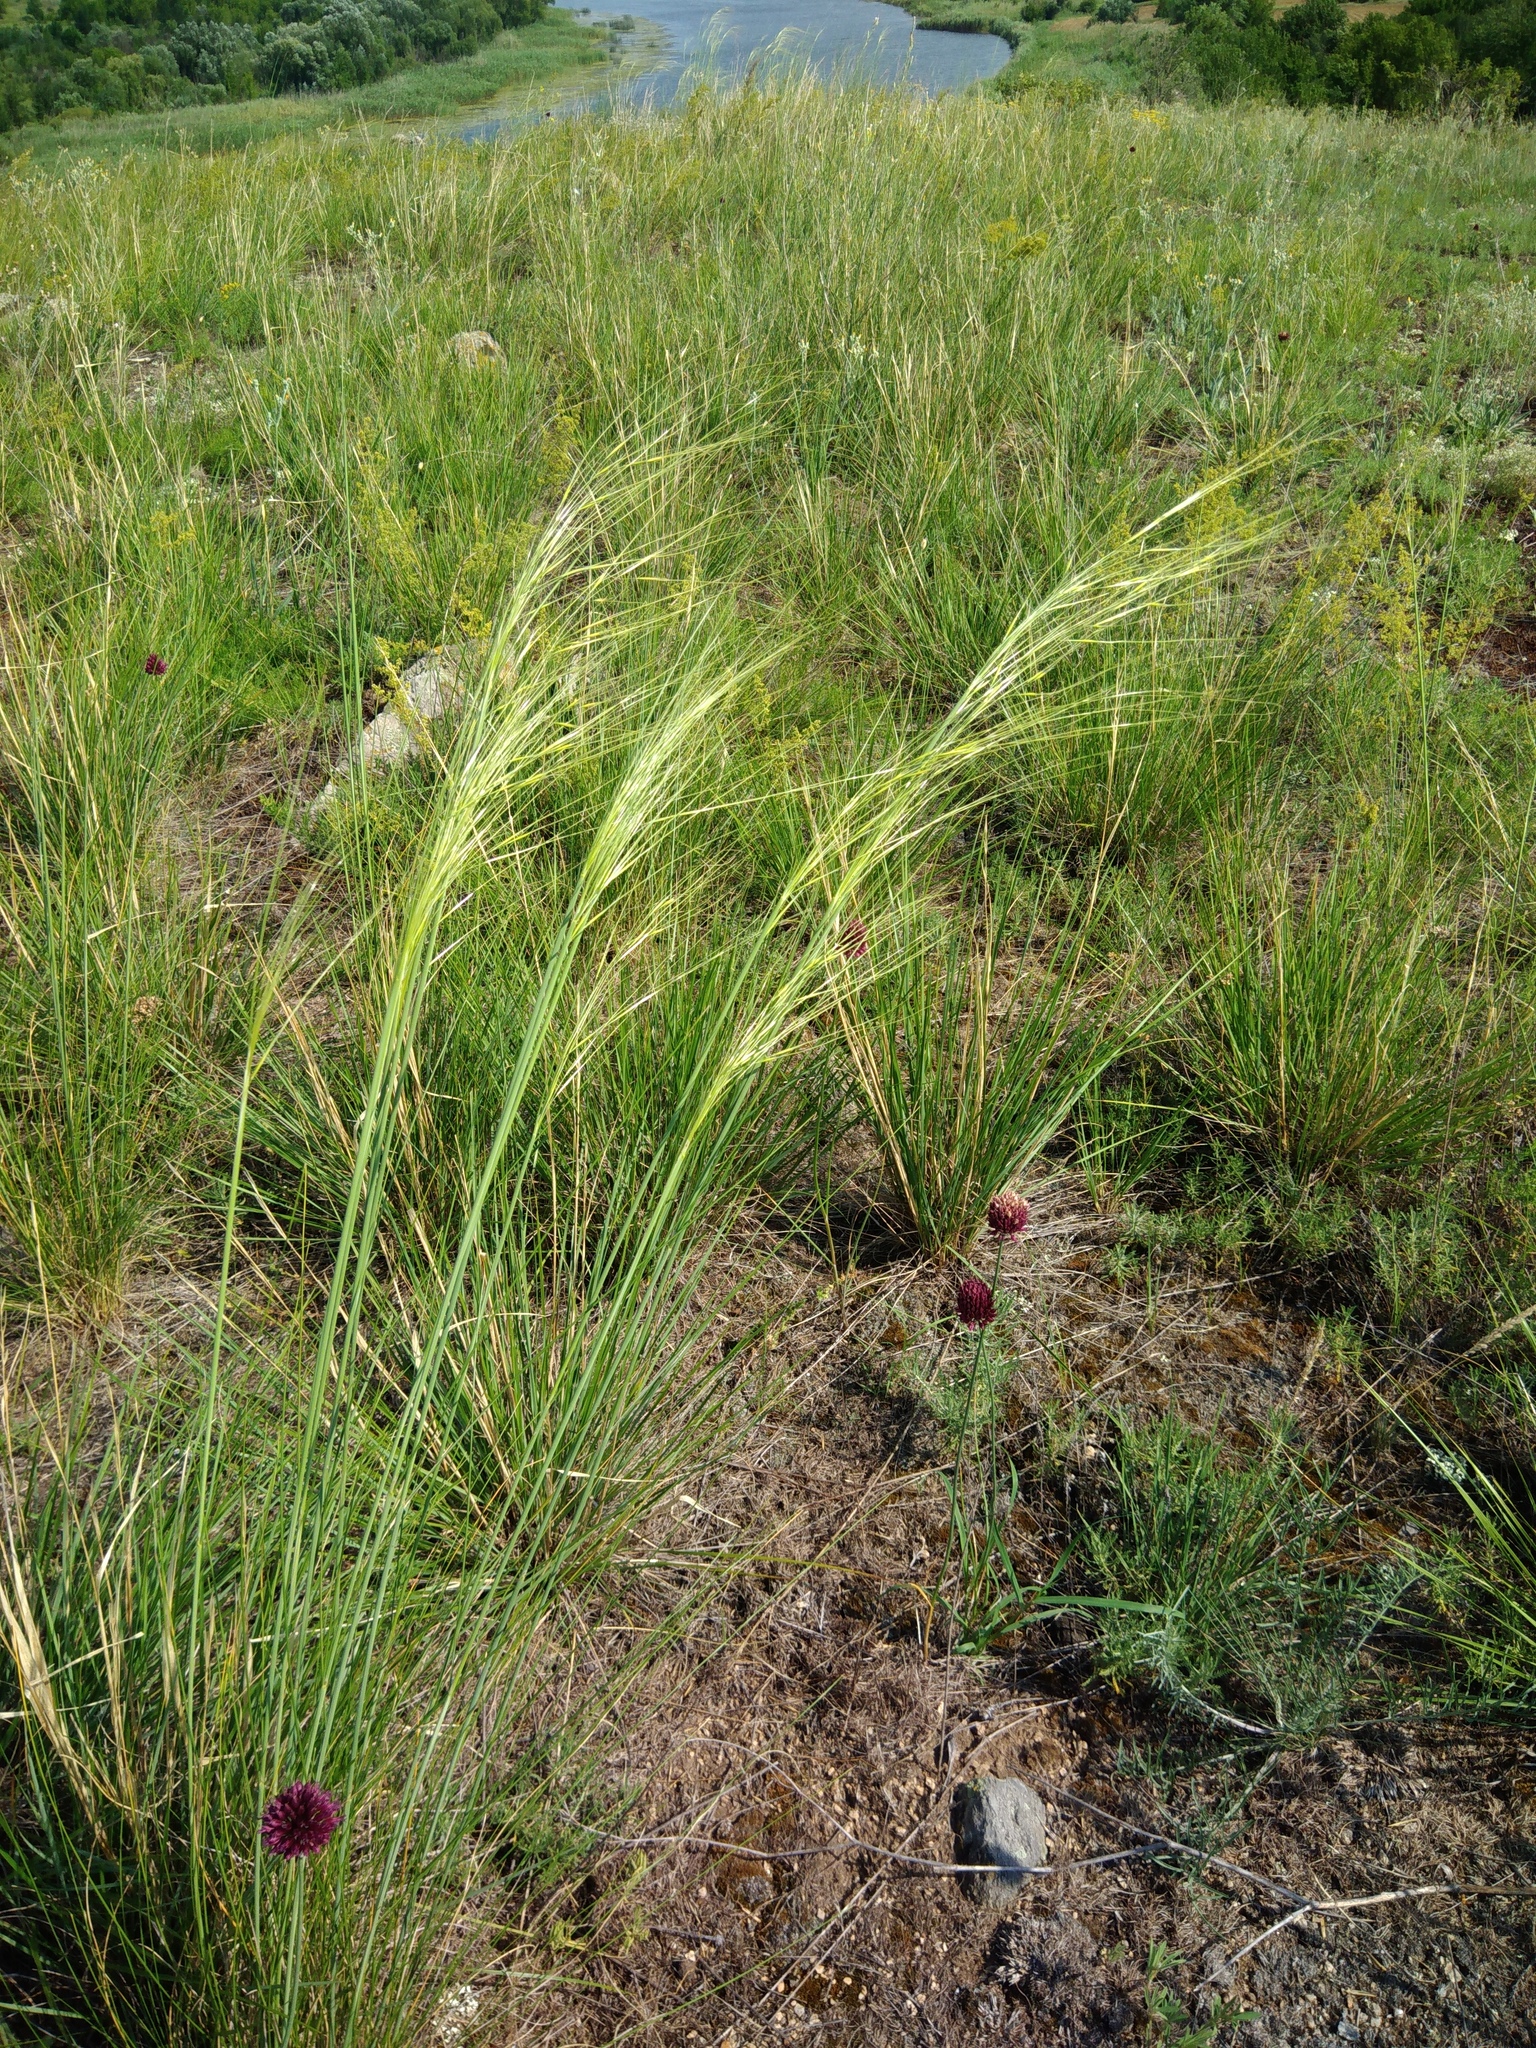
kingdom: Plantae
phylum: Tracheophyta
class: Liliopsida
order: Poales
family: Poaceae
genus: Stipa
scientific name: Stipa capillata
